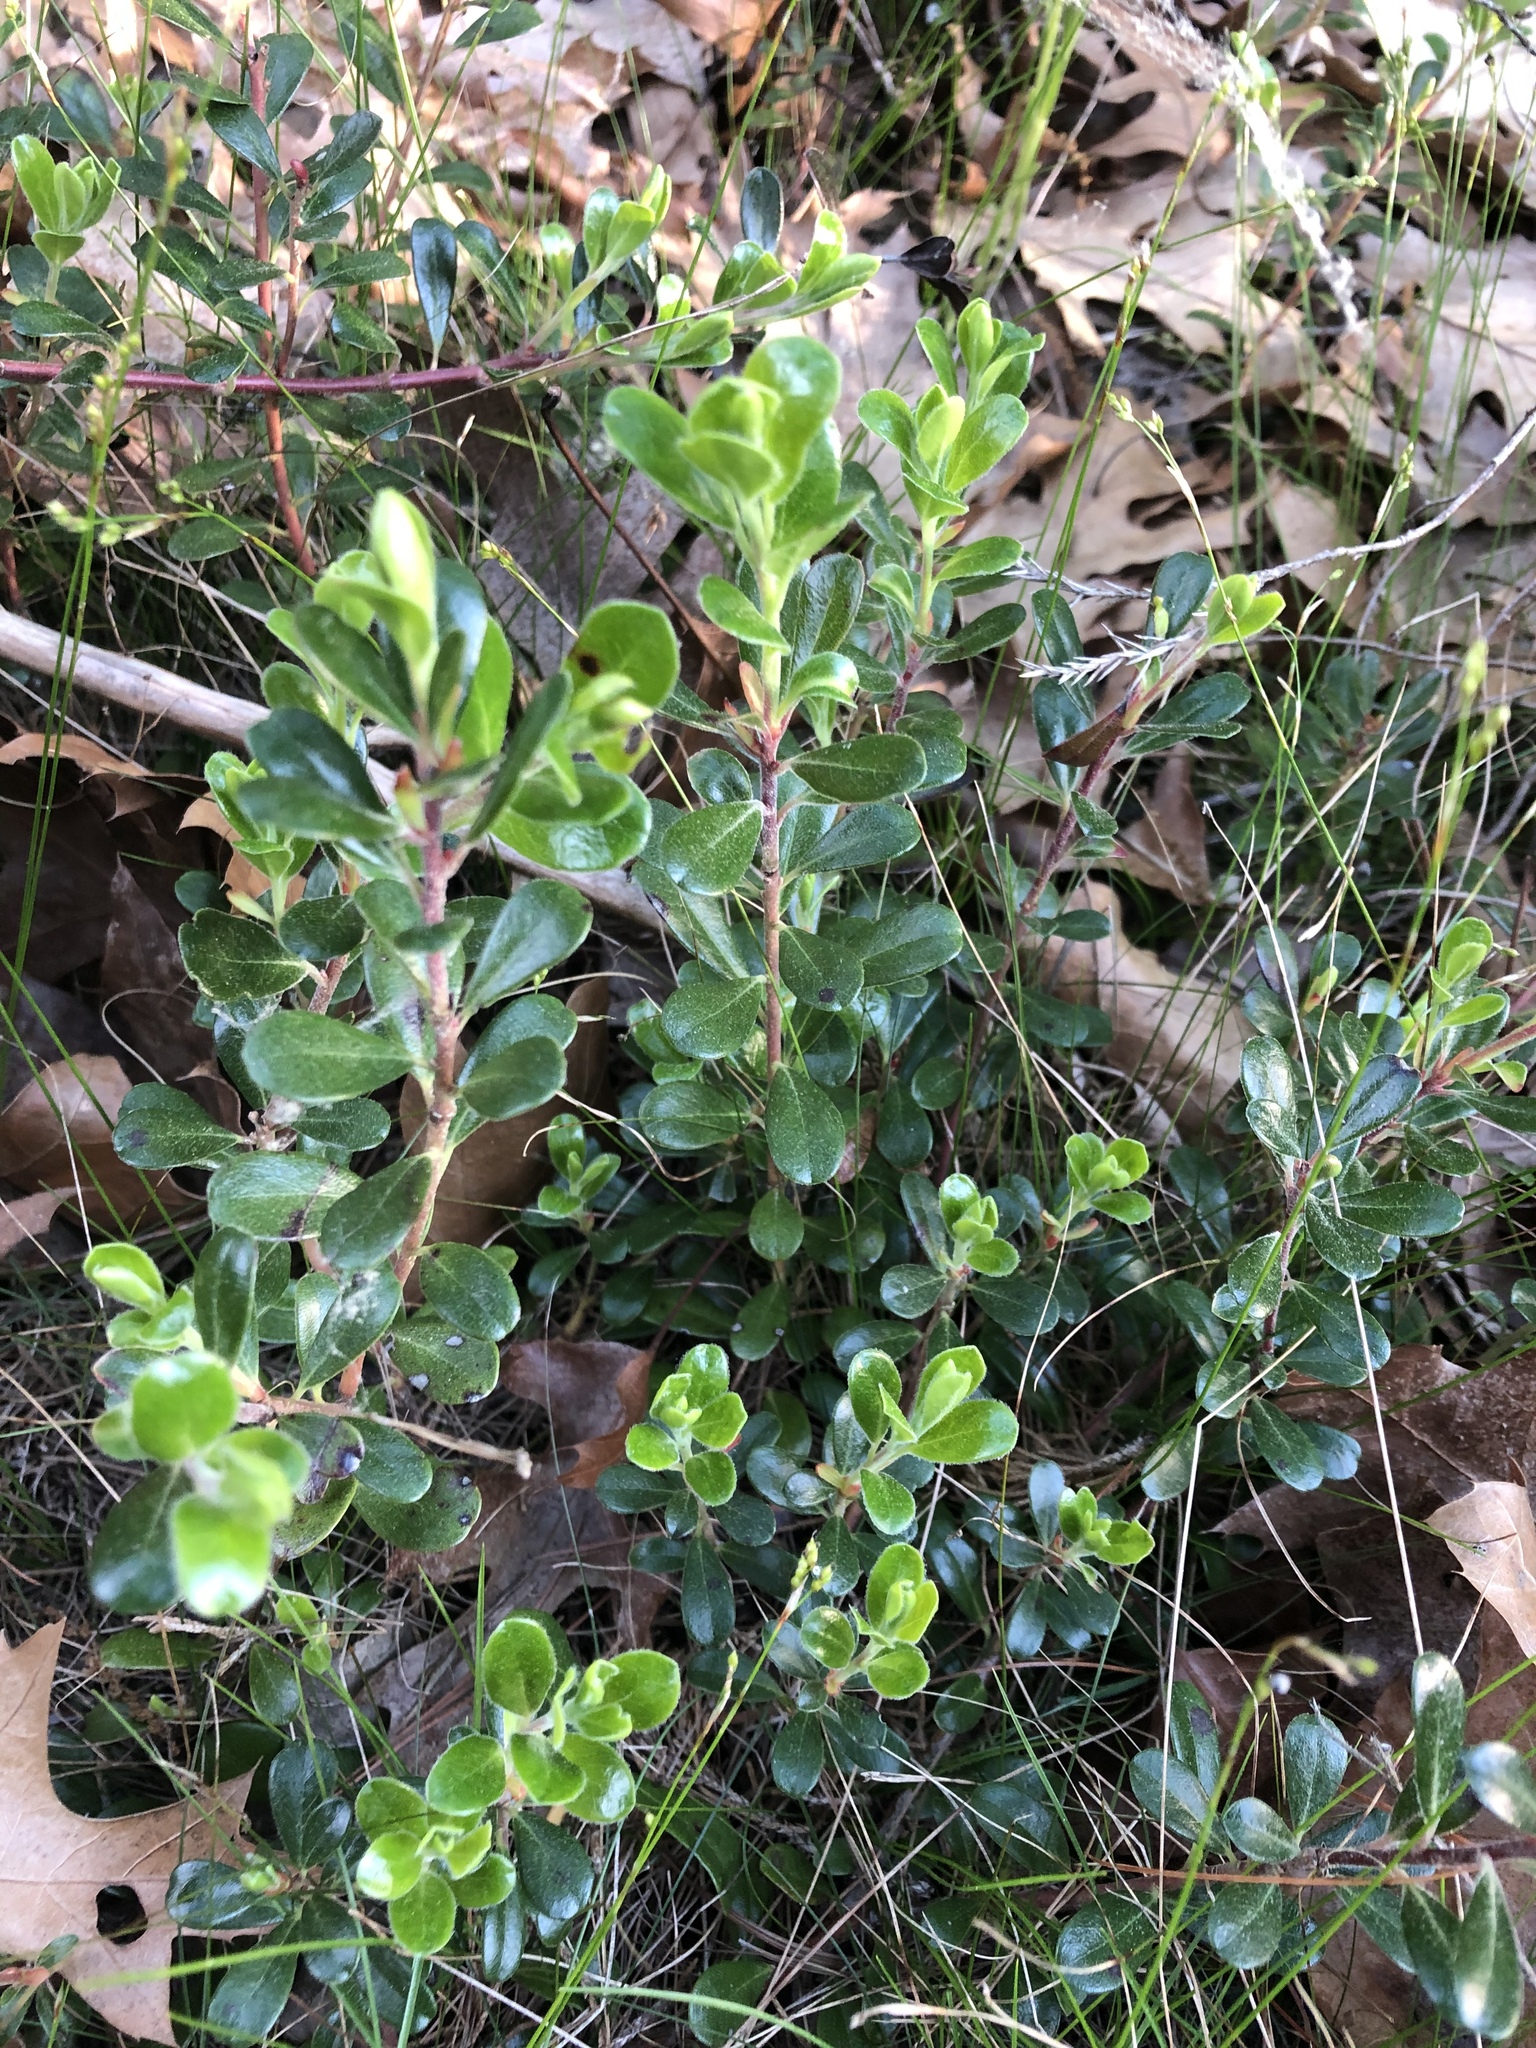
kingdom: Plantae
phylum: Tracheophyta
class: Magnoliopsida
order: Ericales
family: Ericaceae
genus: Arctostaphylos
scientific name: Arctostaphylos uva-ursi
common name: Bearberry
